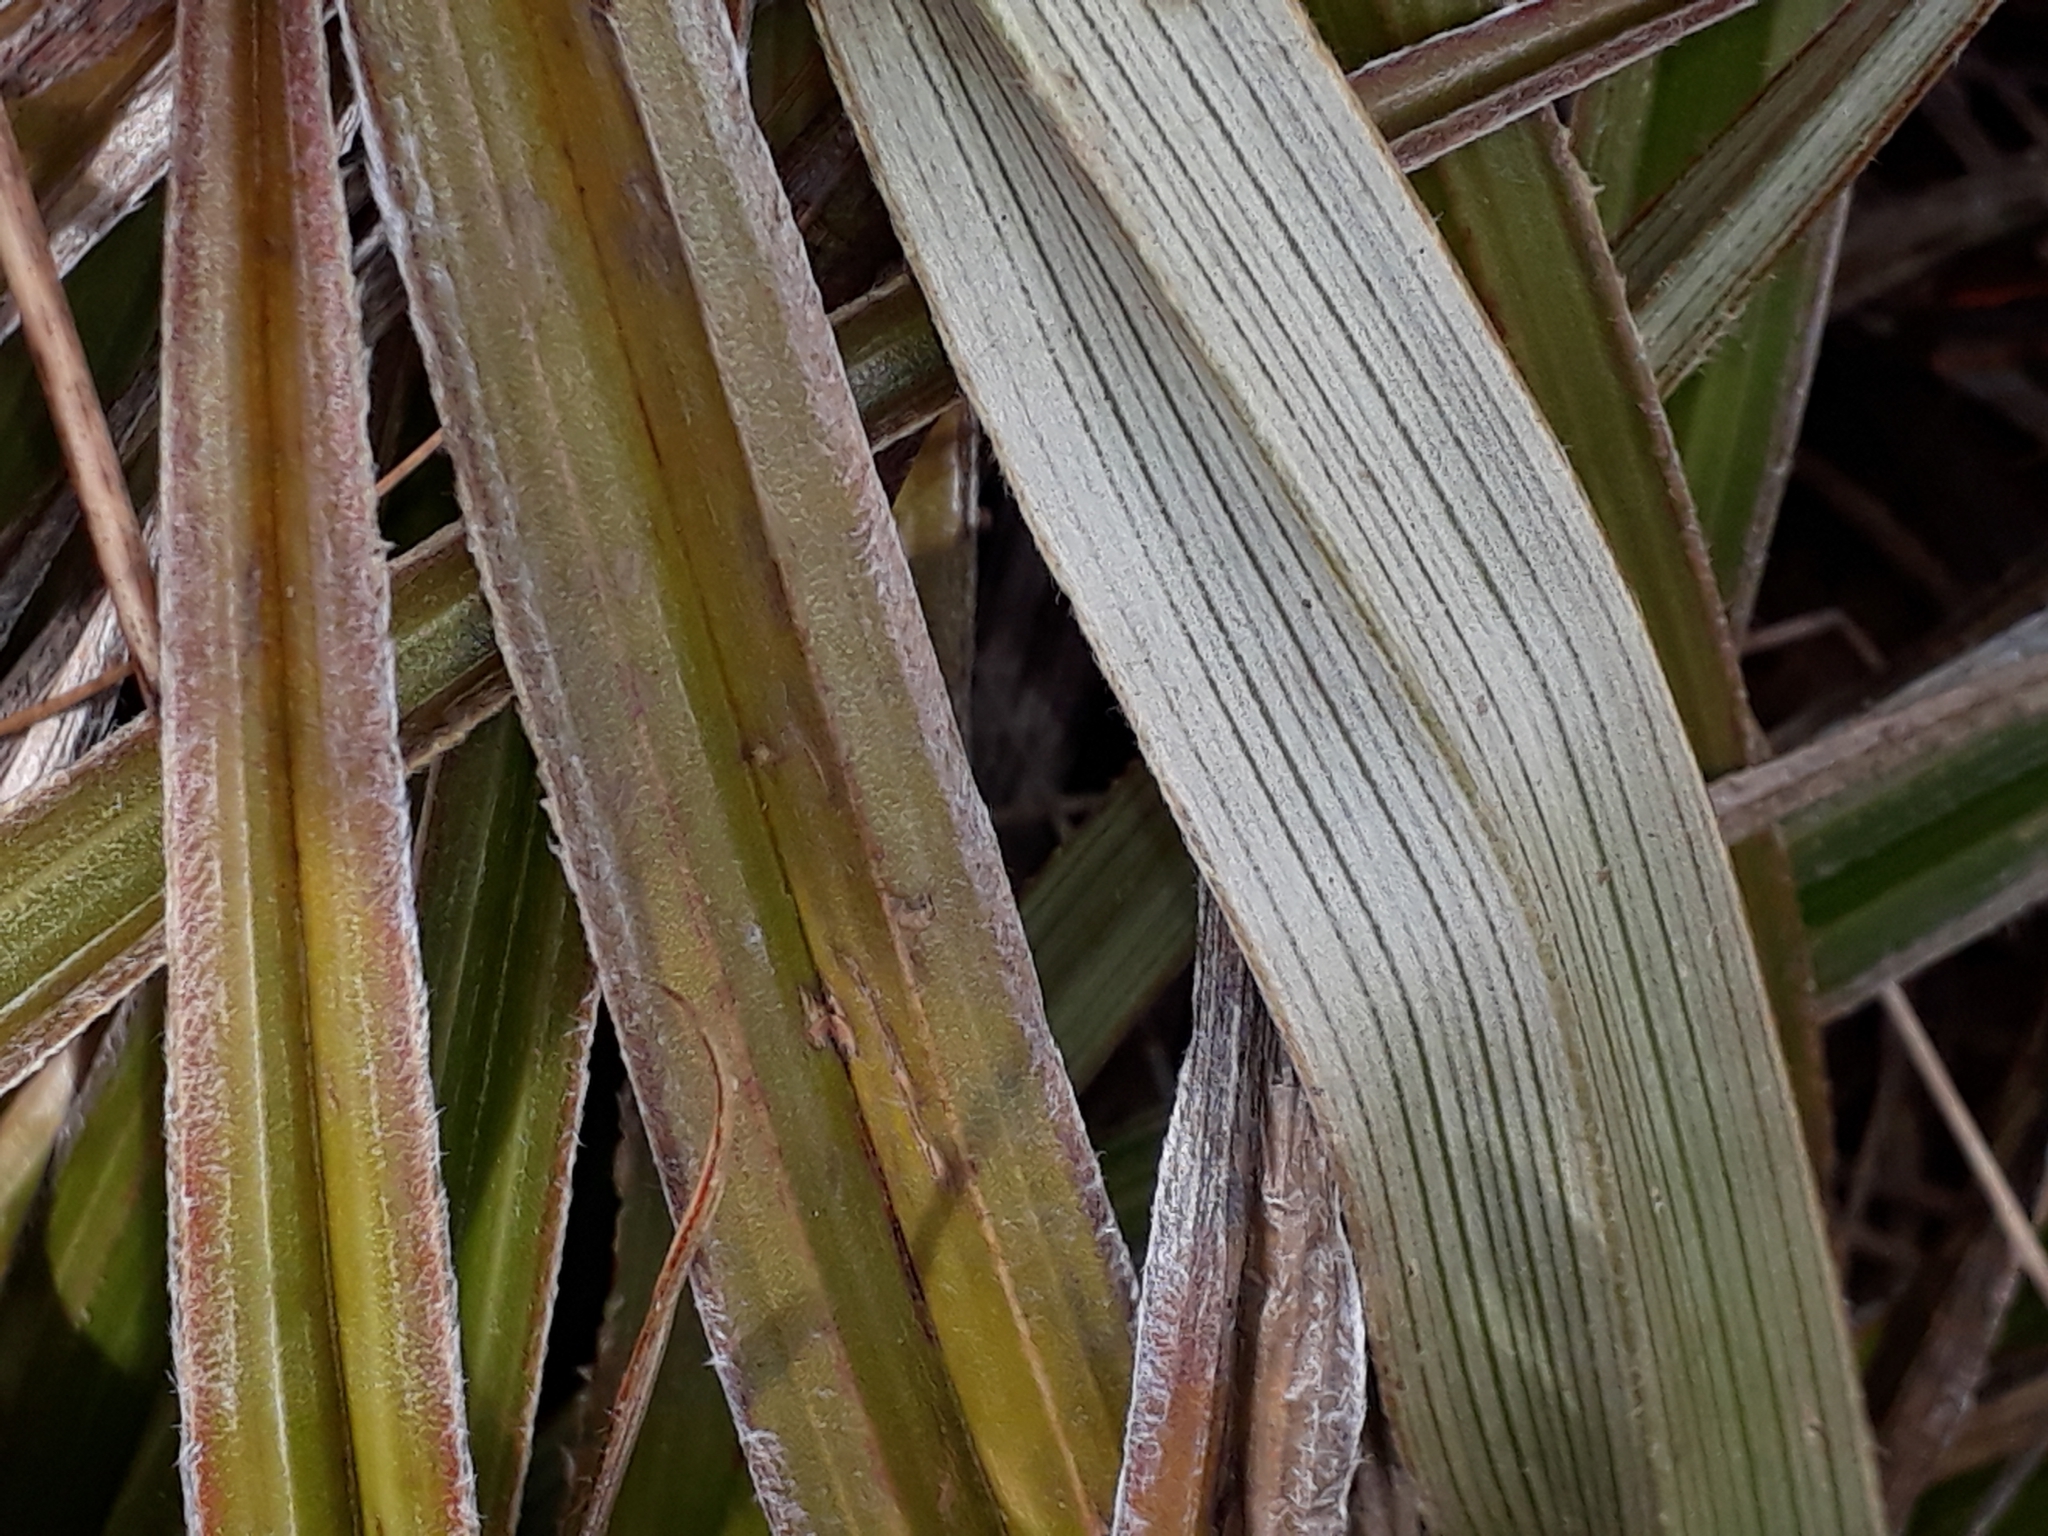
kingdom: Plantae
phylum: Tracheophyta
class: Liliopsida
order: Asparagales
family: Asteliaceae
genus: Astelia
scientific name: Astelia nervosa
